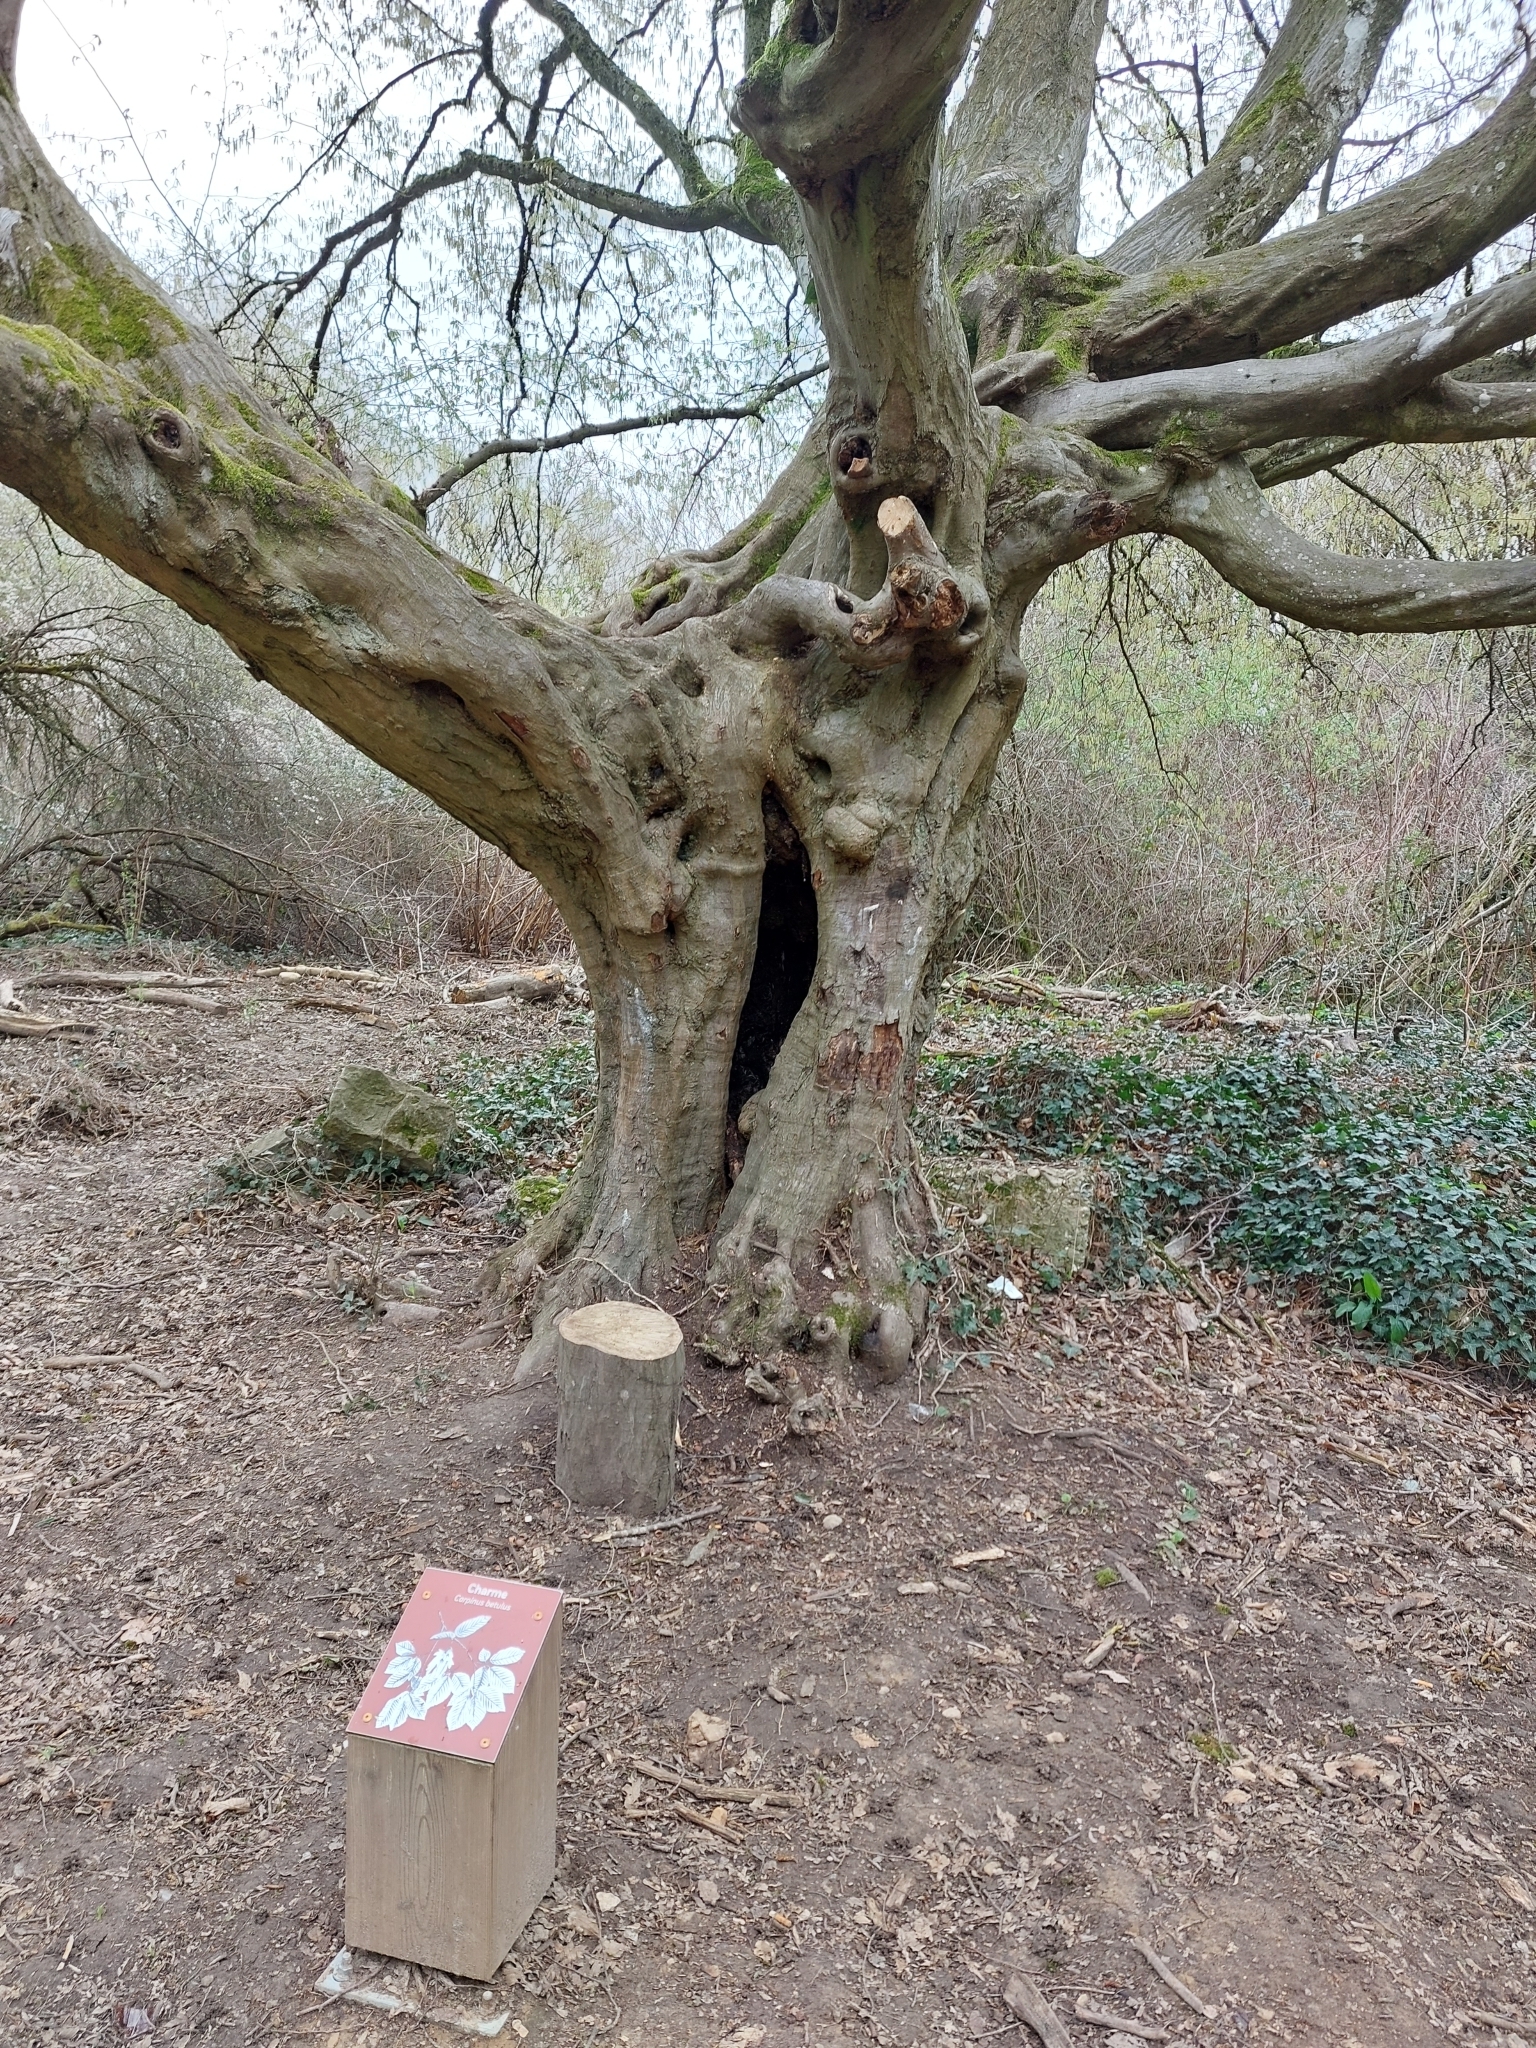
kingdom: Plantae
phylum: Tracheophyta
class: Magnoliopsida
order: Fagales
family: Betulaceae
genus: Carpinus
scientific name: Carpinus betulus
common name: Hornbeam
